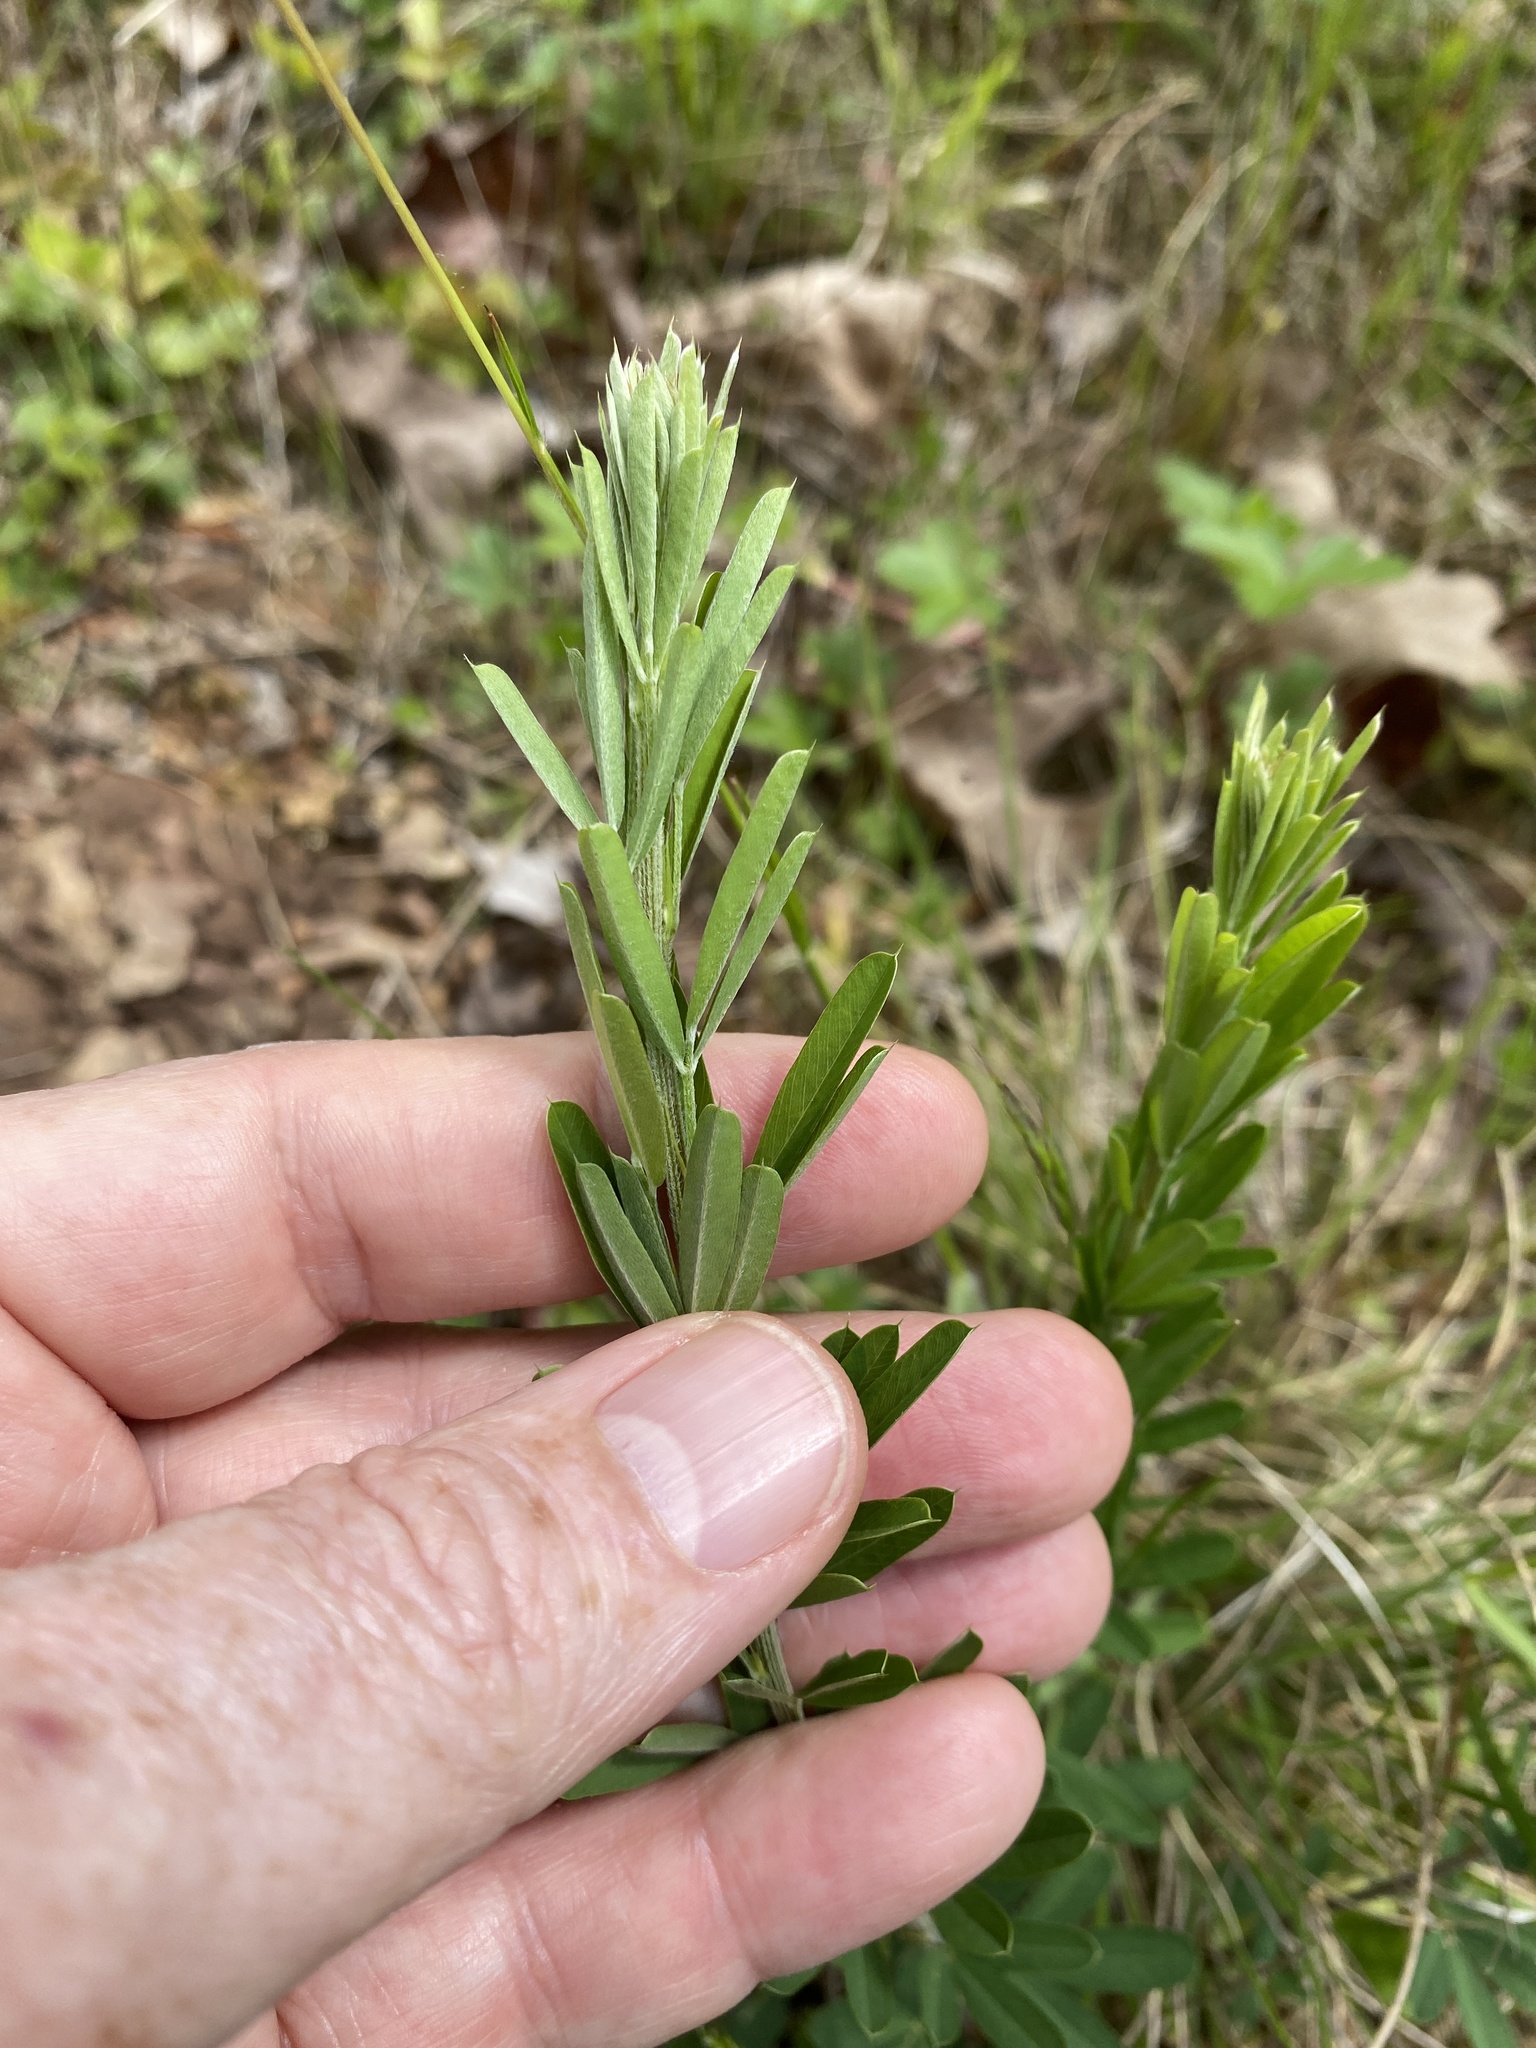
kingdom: Plantae
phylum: Tracheophyta
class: Magnoliopsida
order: Fabales
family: Fabaceae
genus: Lespedeza
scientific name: Lespedeza cuneata
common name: Chinese bush-clover
